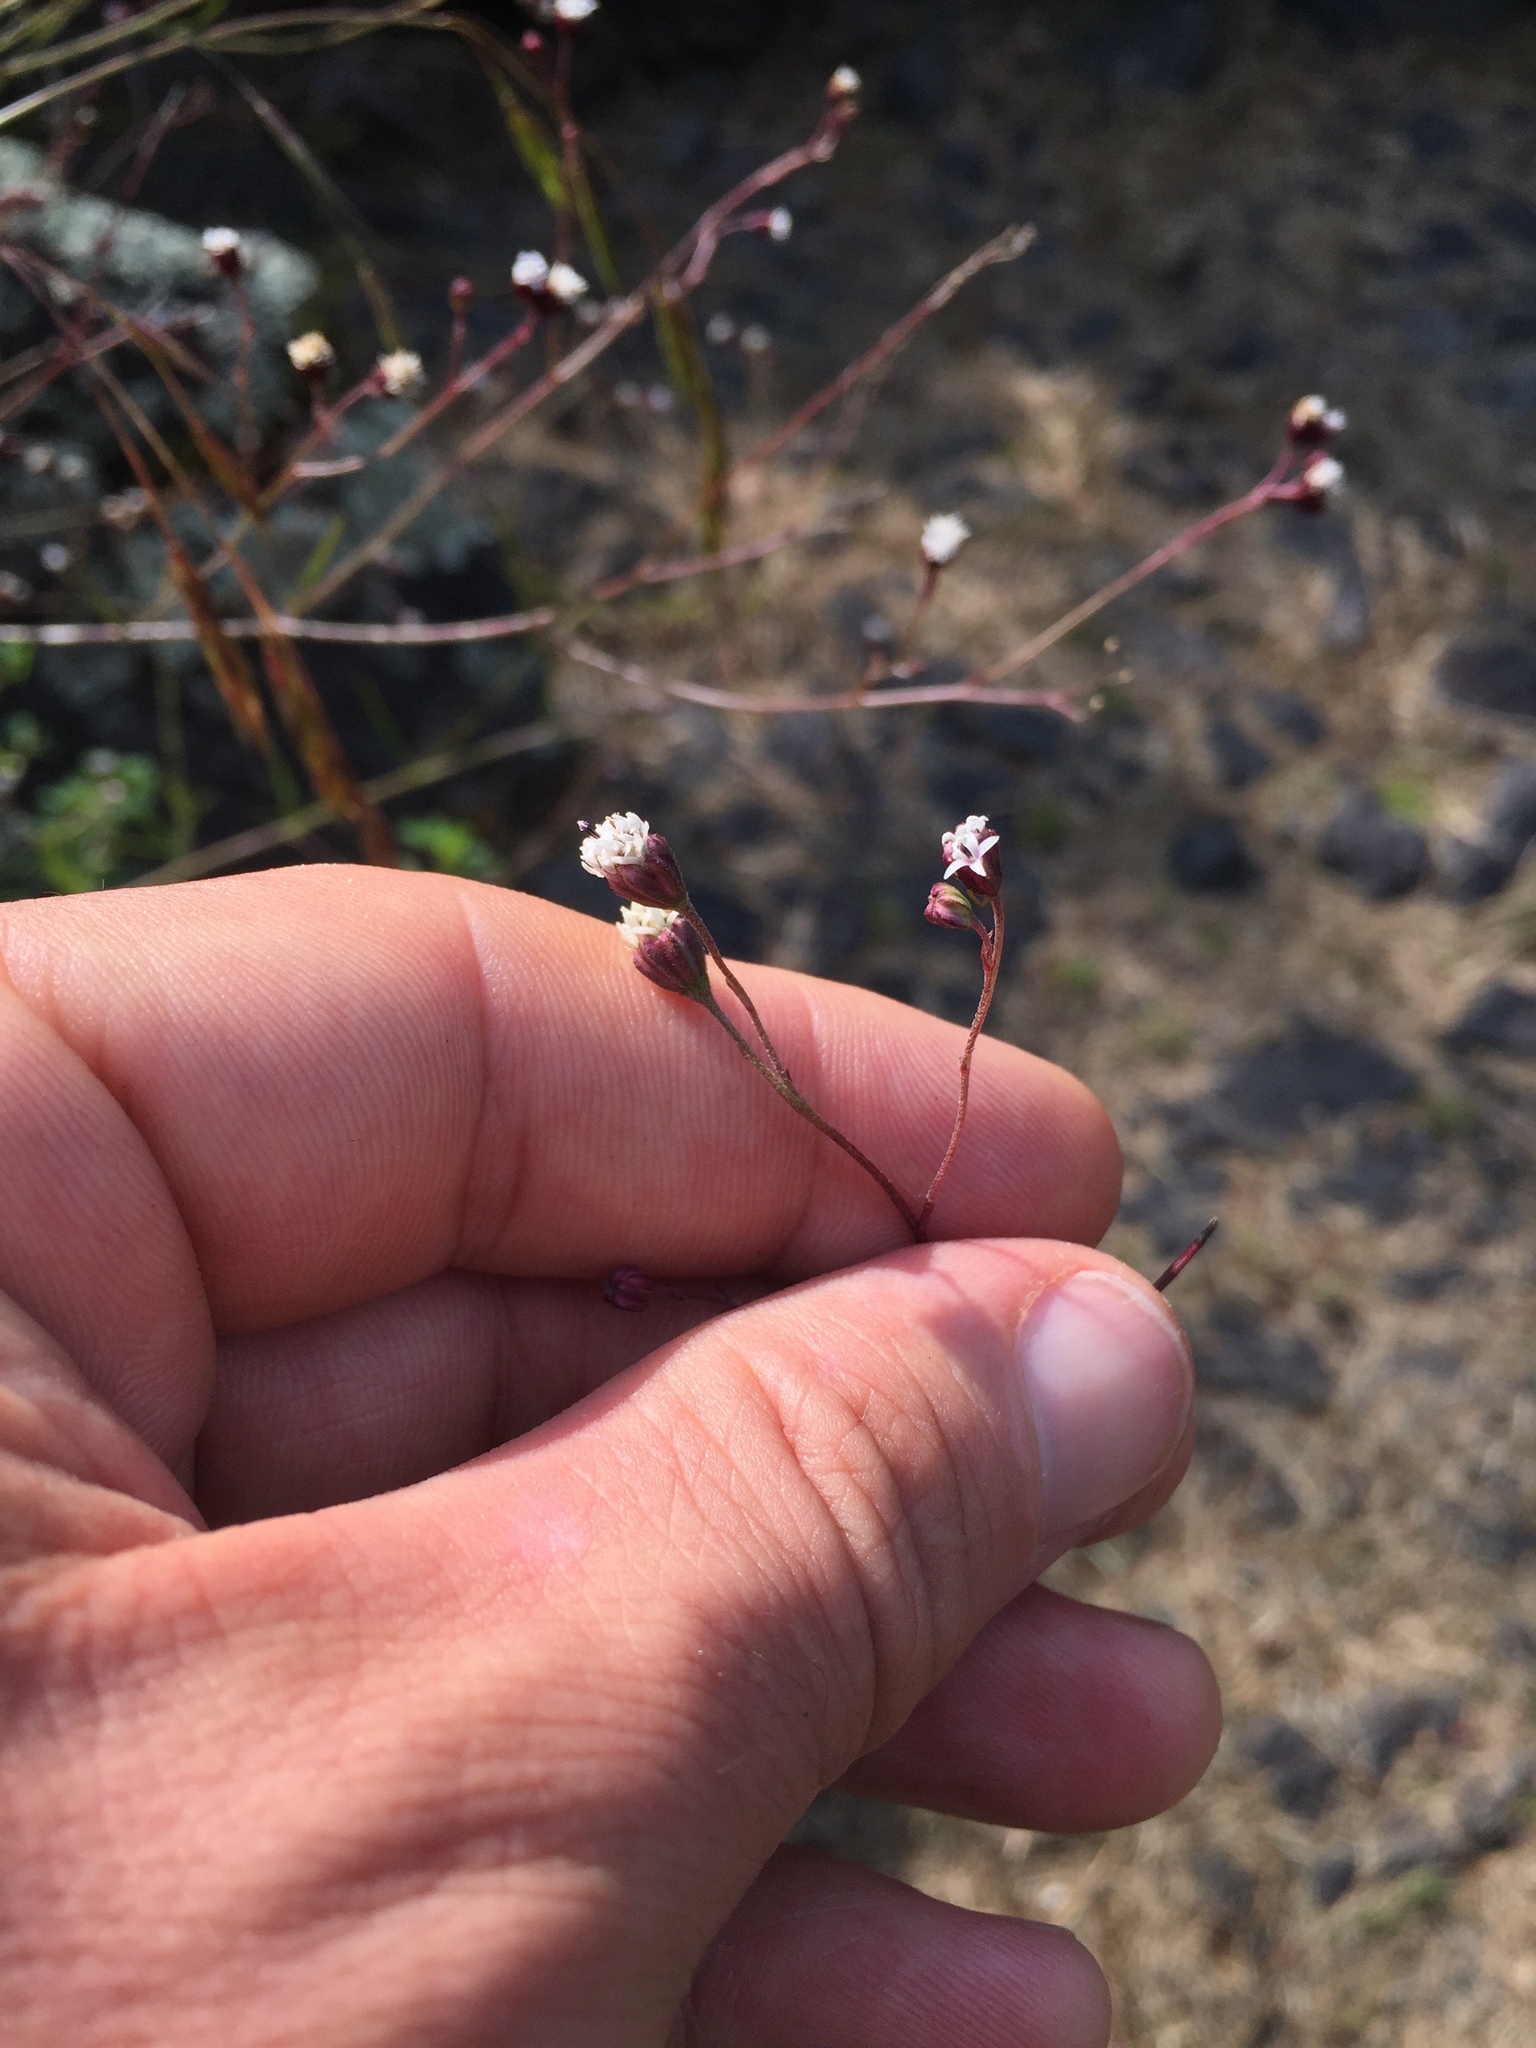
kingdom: Plantae
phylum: Tracheophyta
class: Magnoliopsida
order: Asterales
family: Asteraceae
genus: Florestina
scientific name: Florestina pedata
